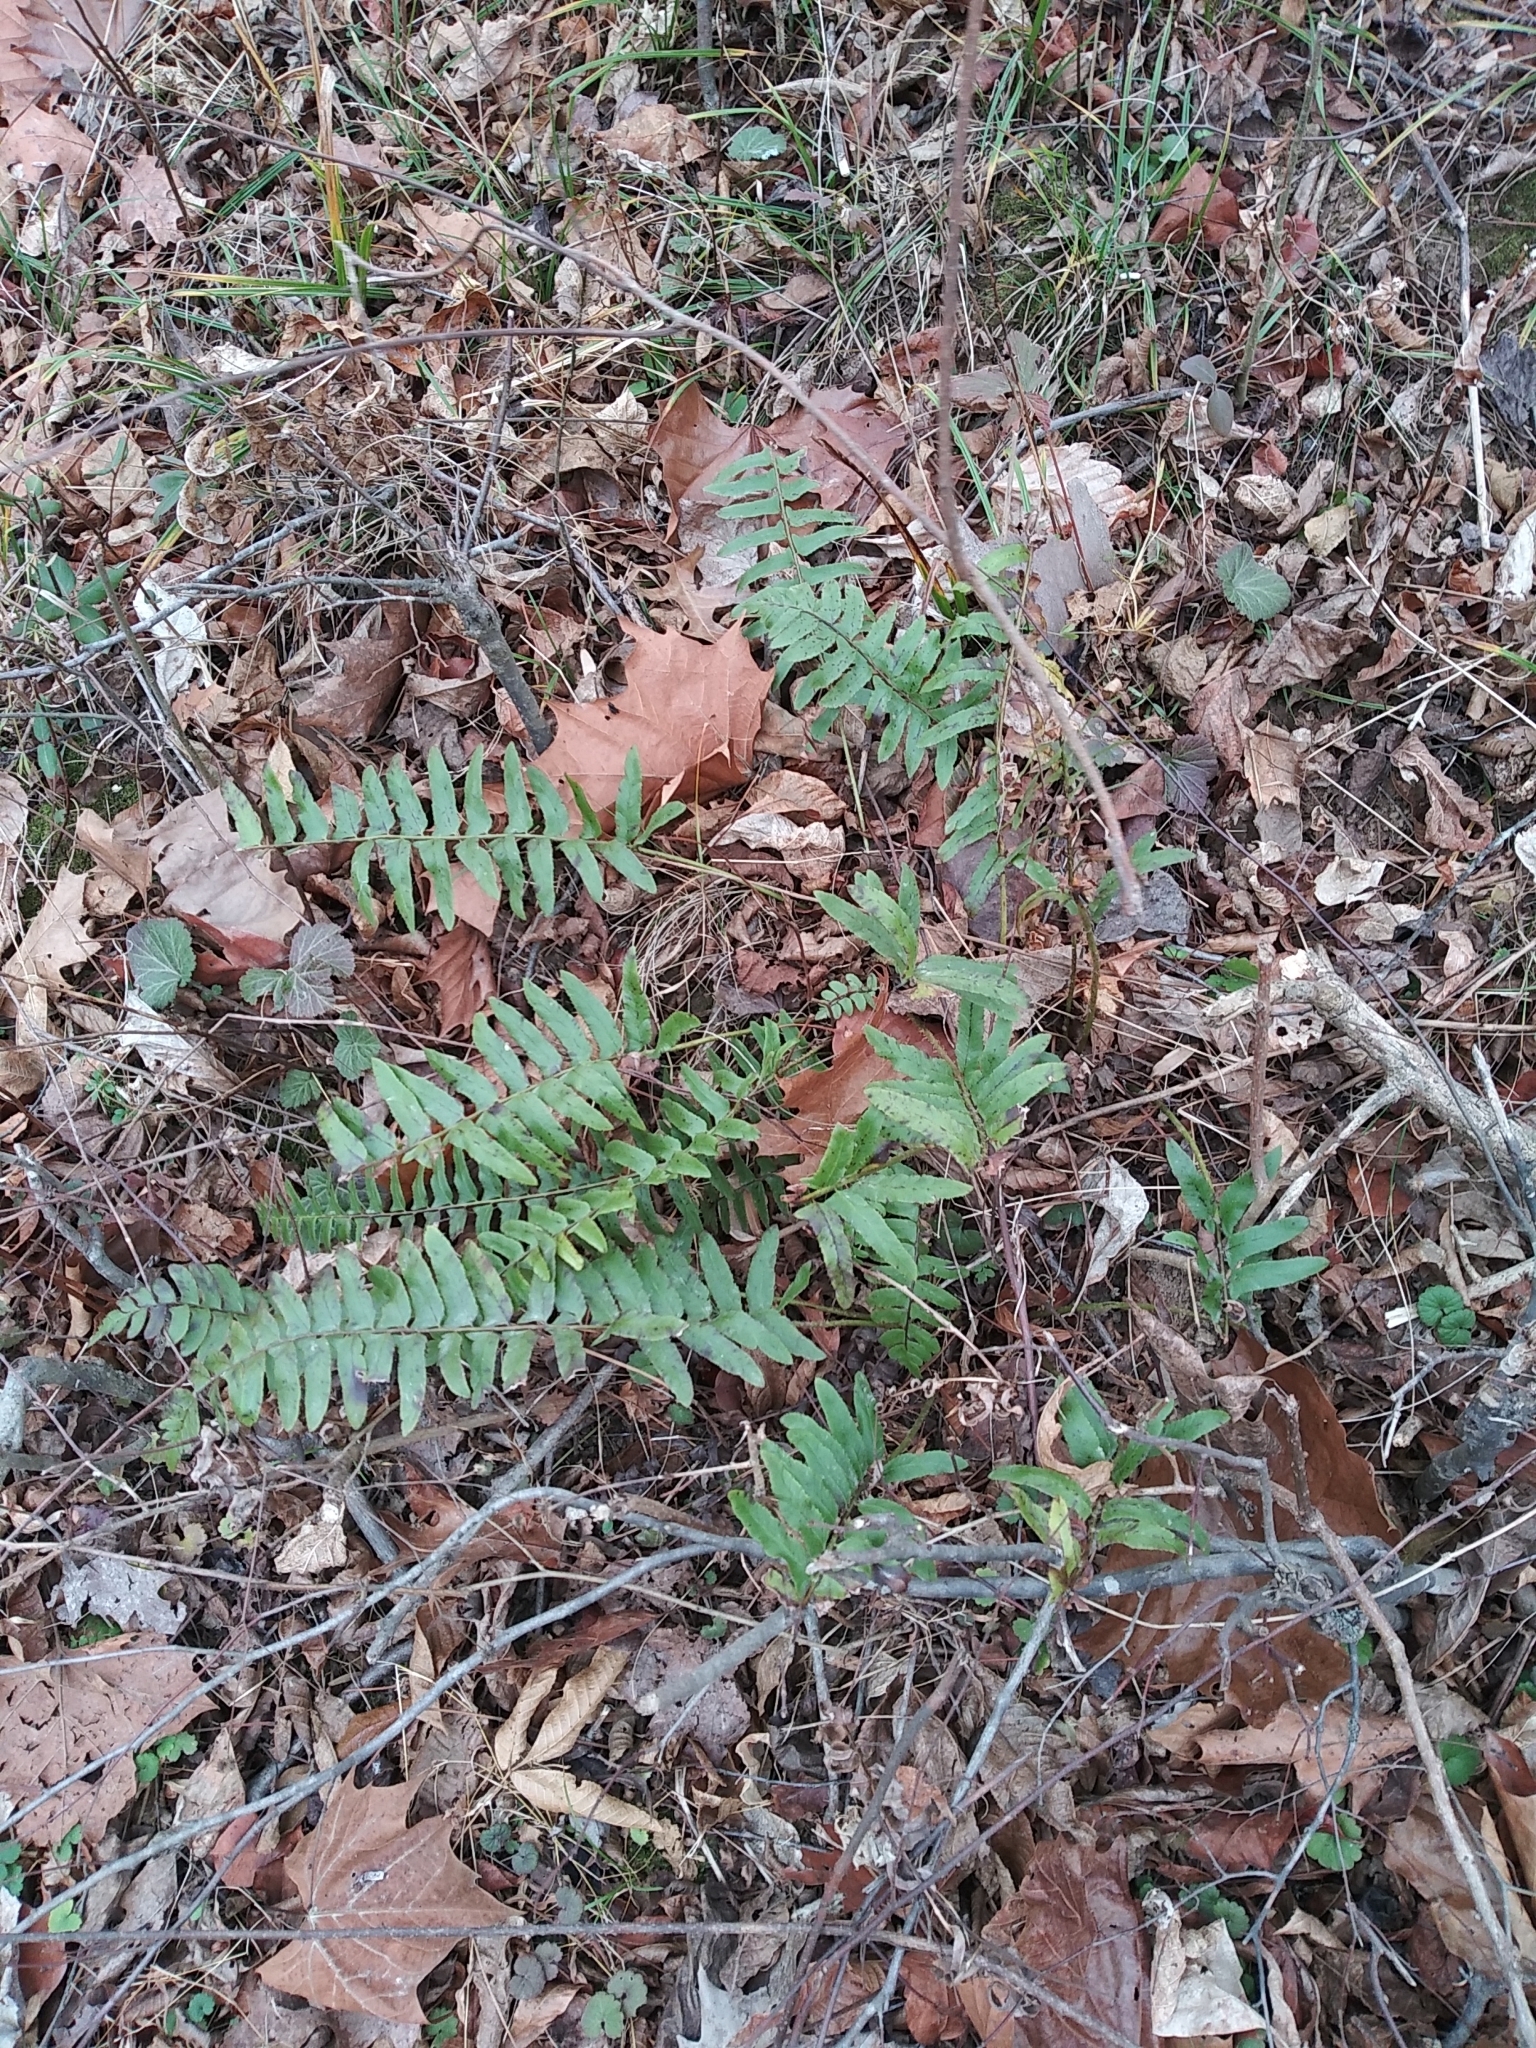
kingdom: Plantae
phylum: Tracheophyta
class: Polypodiopsida
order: Polypodiales
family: Dryopteridaceae
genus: Polystichum
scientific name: Polystichum acrostichoides
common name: Christmas fern
